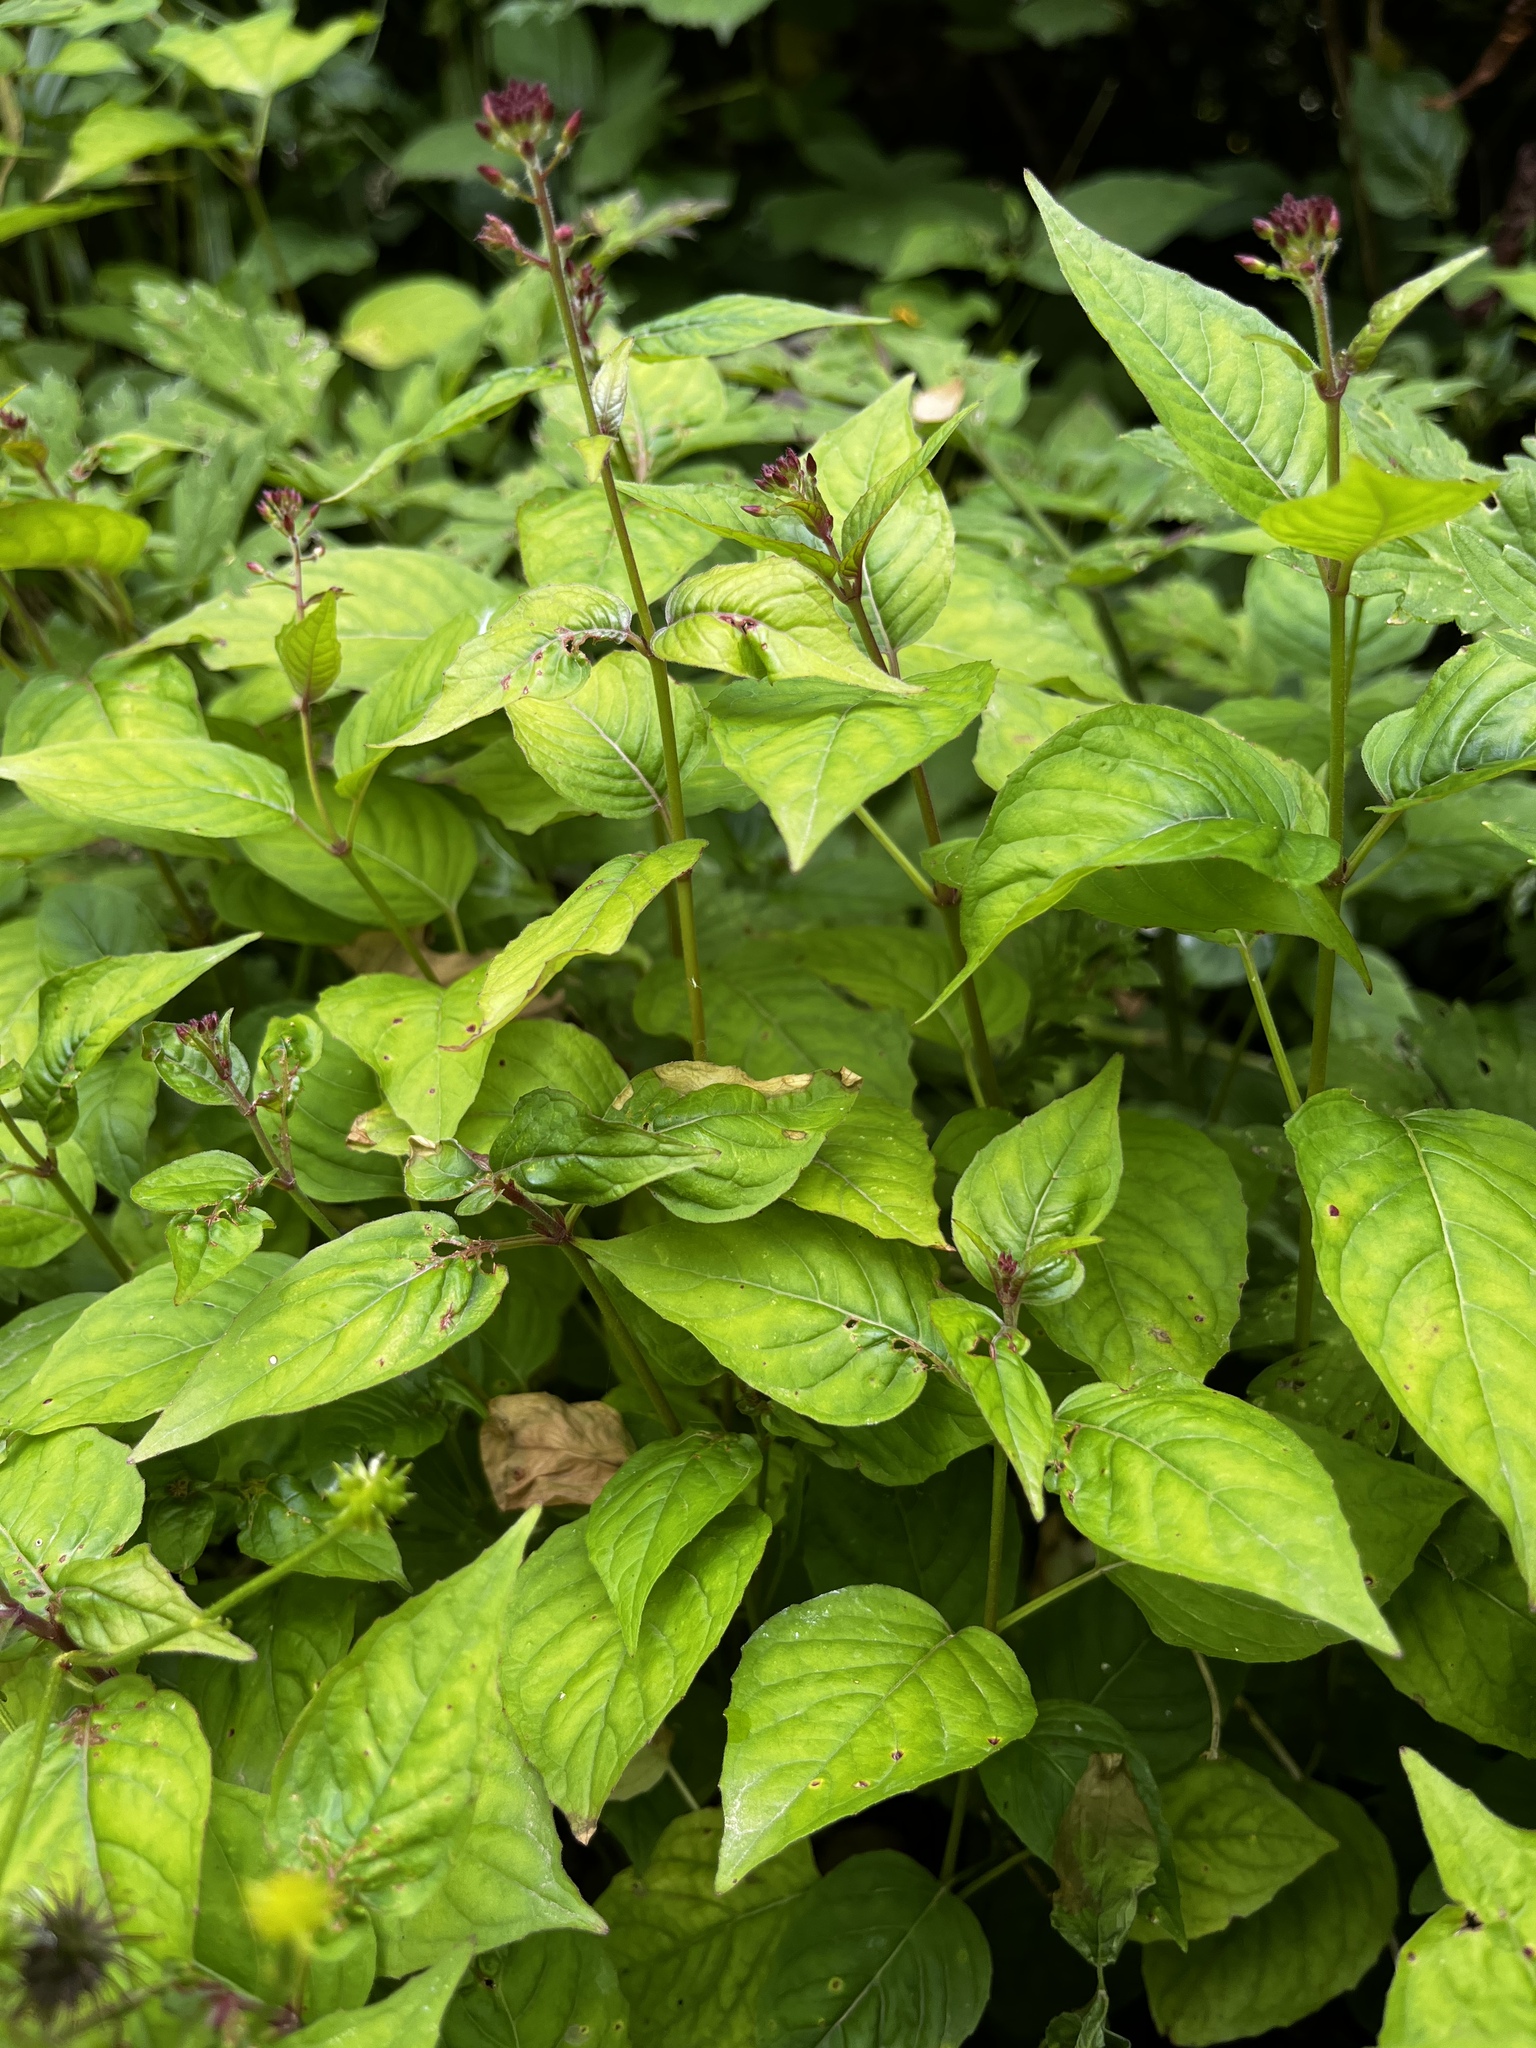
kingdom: Plantae
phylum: Tracheophyta
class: Magnoliopsida
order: Myrtales
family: Onagraceae
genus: Circaea
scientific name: Circaea lutetiana
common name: Enchanter's-nightshade
